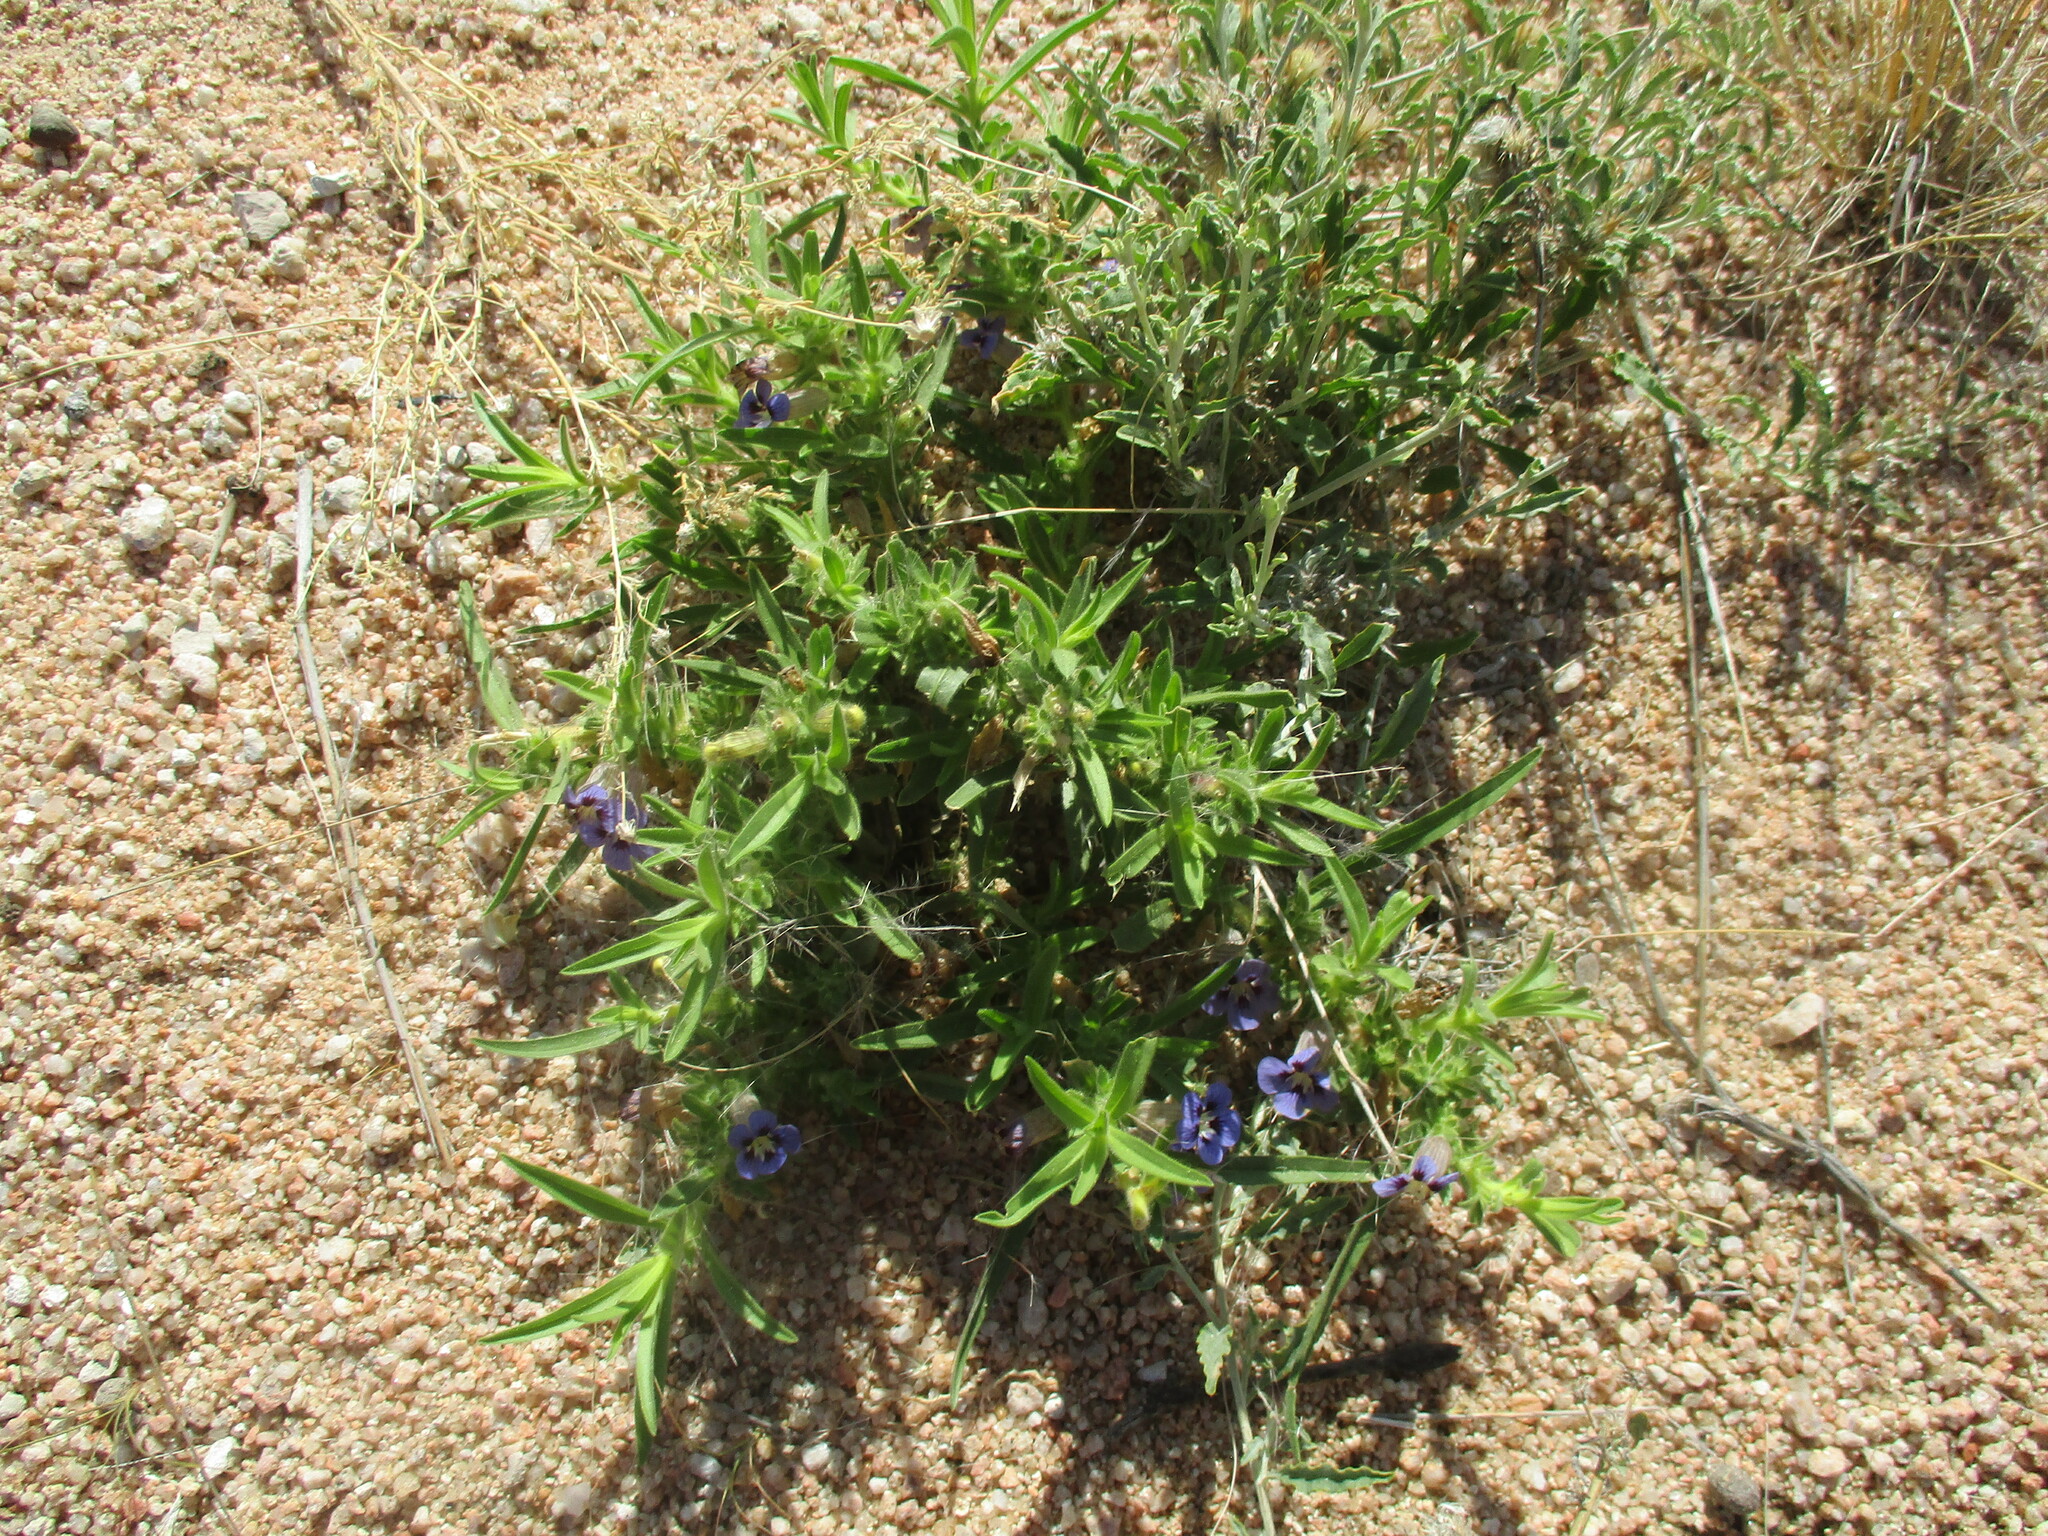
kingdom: Plantae
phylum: Tracheophyta
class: Magnoliopsida
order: Lamiales
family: Scrophulariaceae
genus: Aptosimum
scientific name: Aptosimum arenarium
